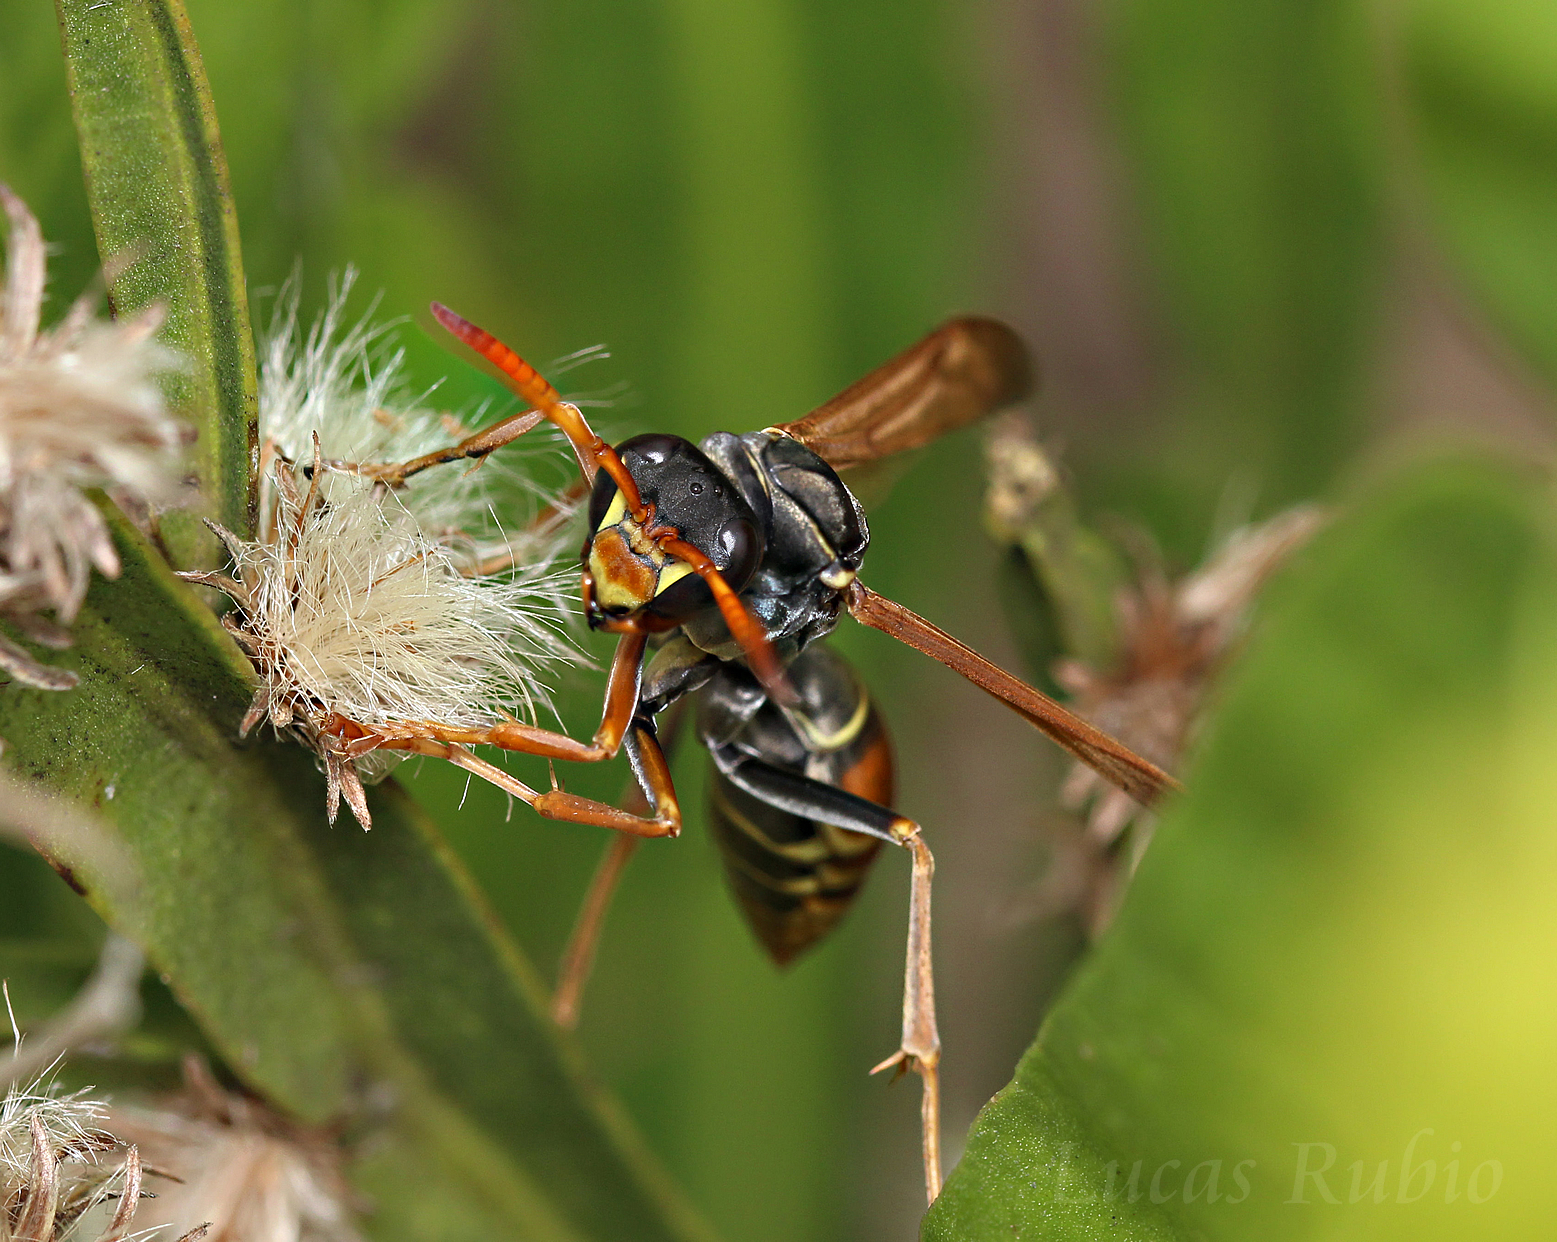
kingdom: Animalia
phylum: Arthropoda
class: Insecta
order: Hymenoptera
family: Eumenidae
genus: Polistes
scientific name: Polistes billardieri
